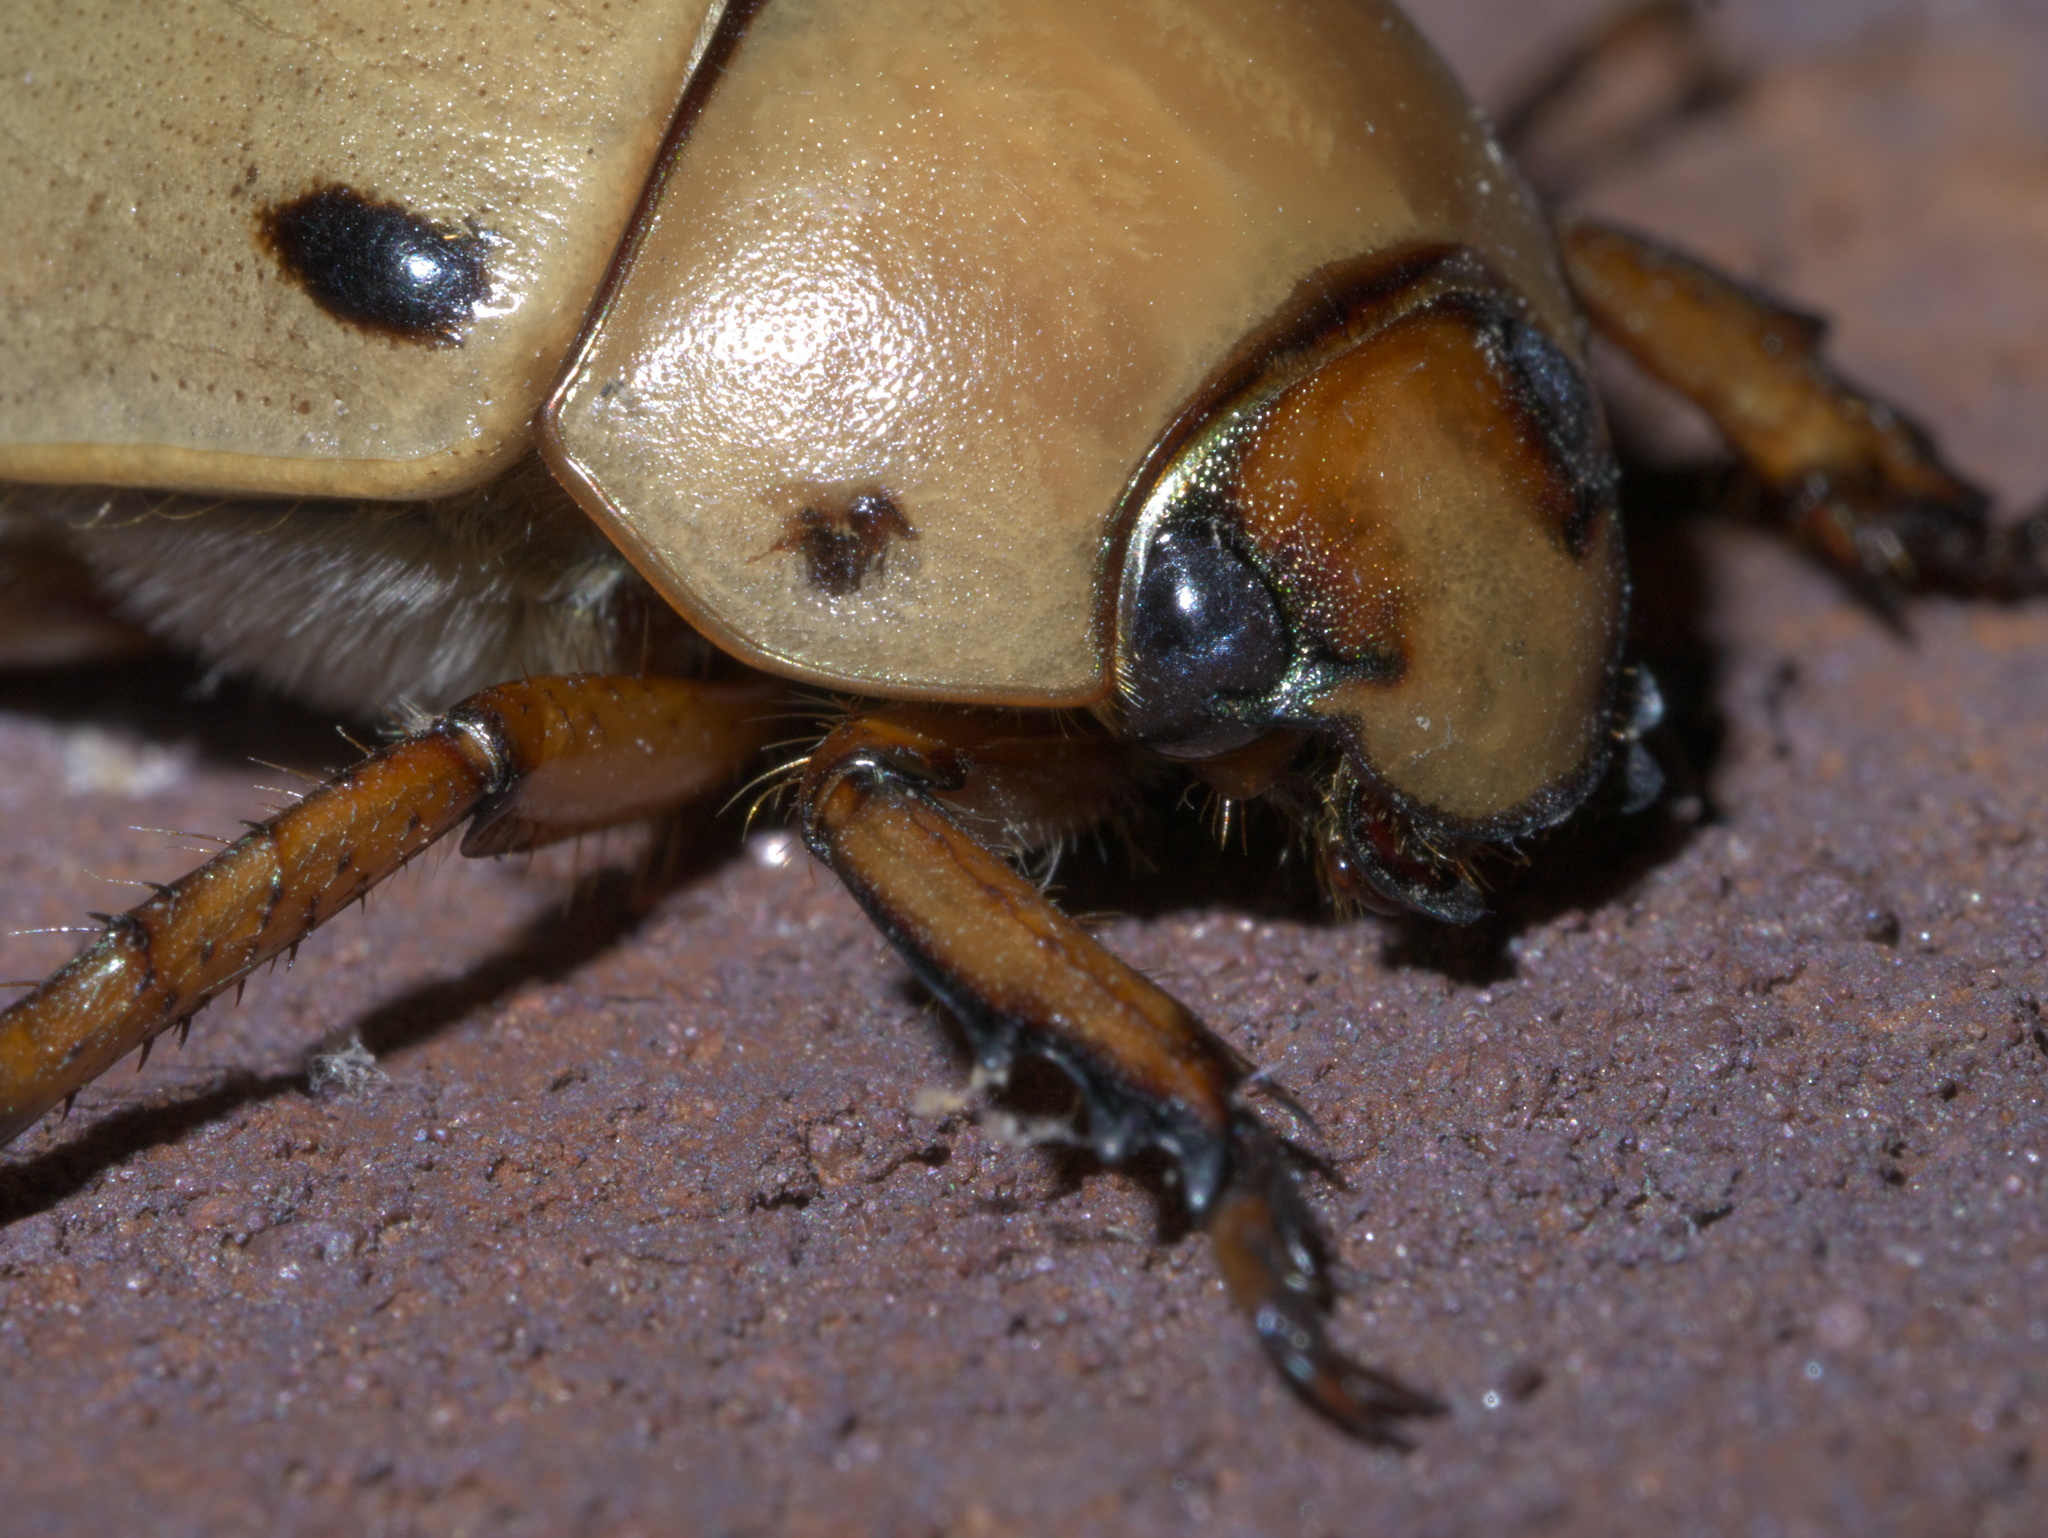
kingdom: Animalia
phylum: Arthropoda
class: Insecta
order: Coleoptera
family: Scarabaeidae
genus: Pelidnota
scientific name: Pelidnota punctata
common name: Grapevine beetle
